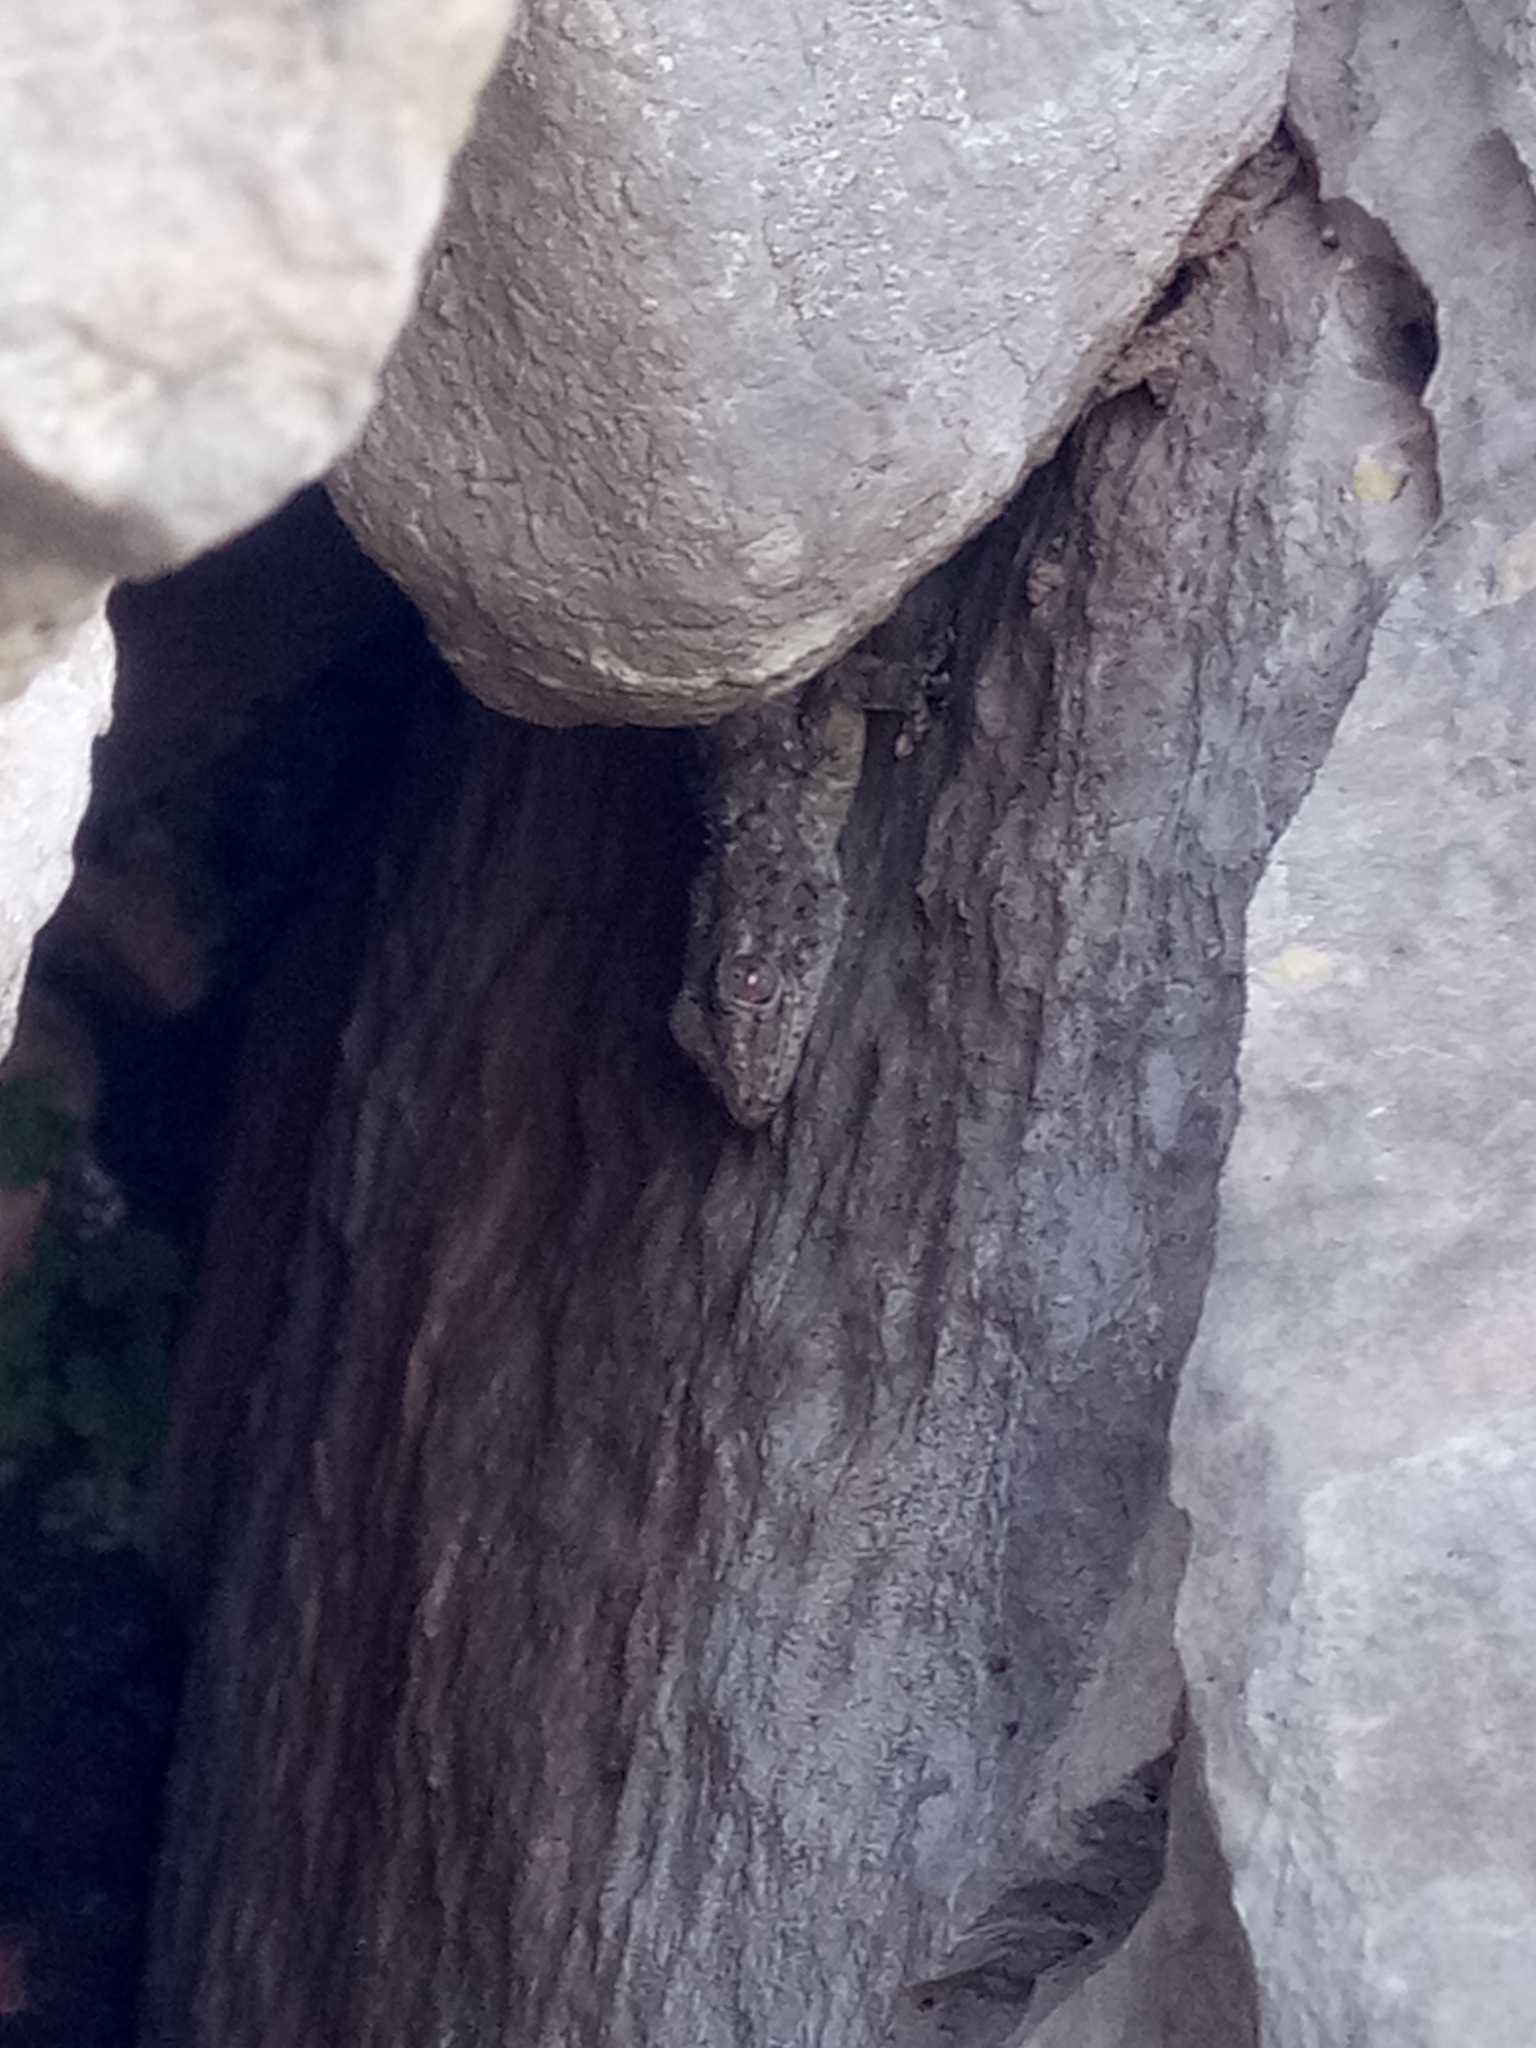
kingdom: Animalia
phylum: Chordata
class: Squamata
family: Phyllodactylidae
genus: Tarentola
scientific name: Tarentola mauritanica
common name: Moorish gecko
